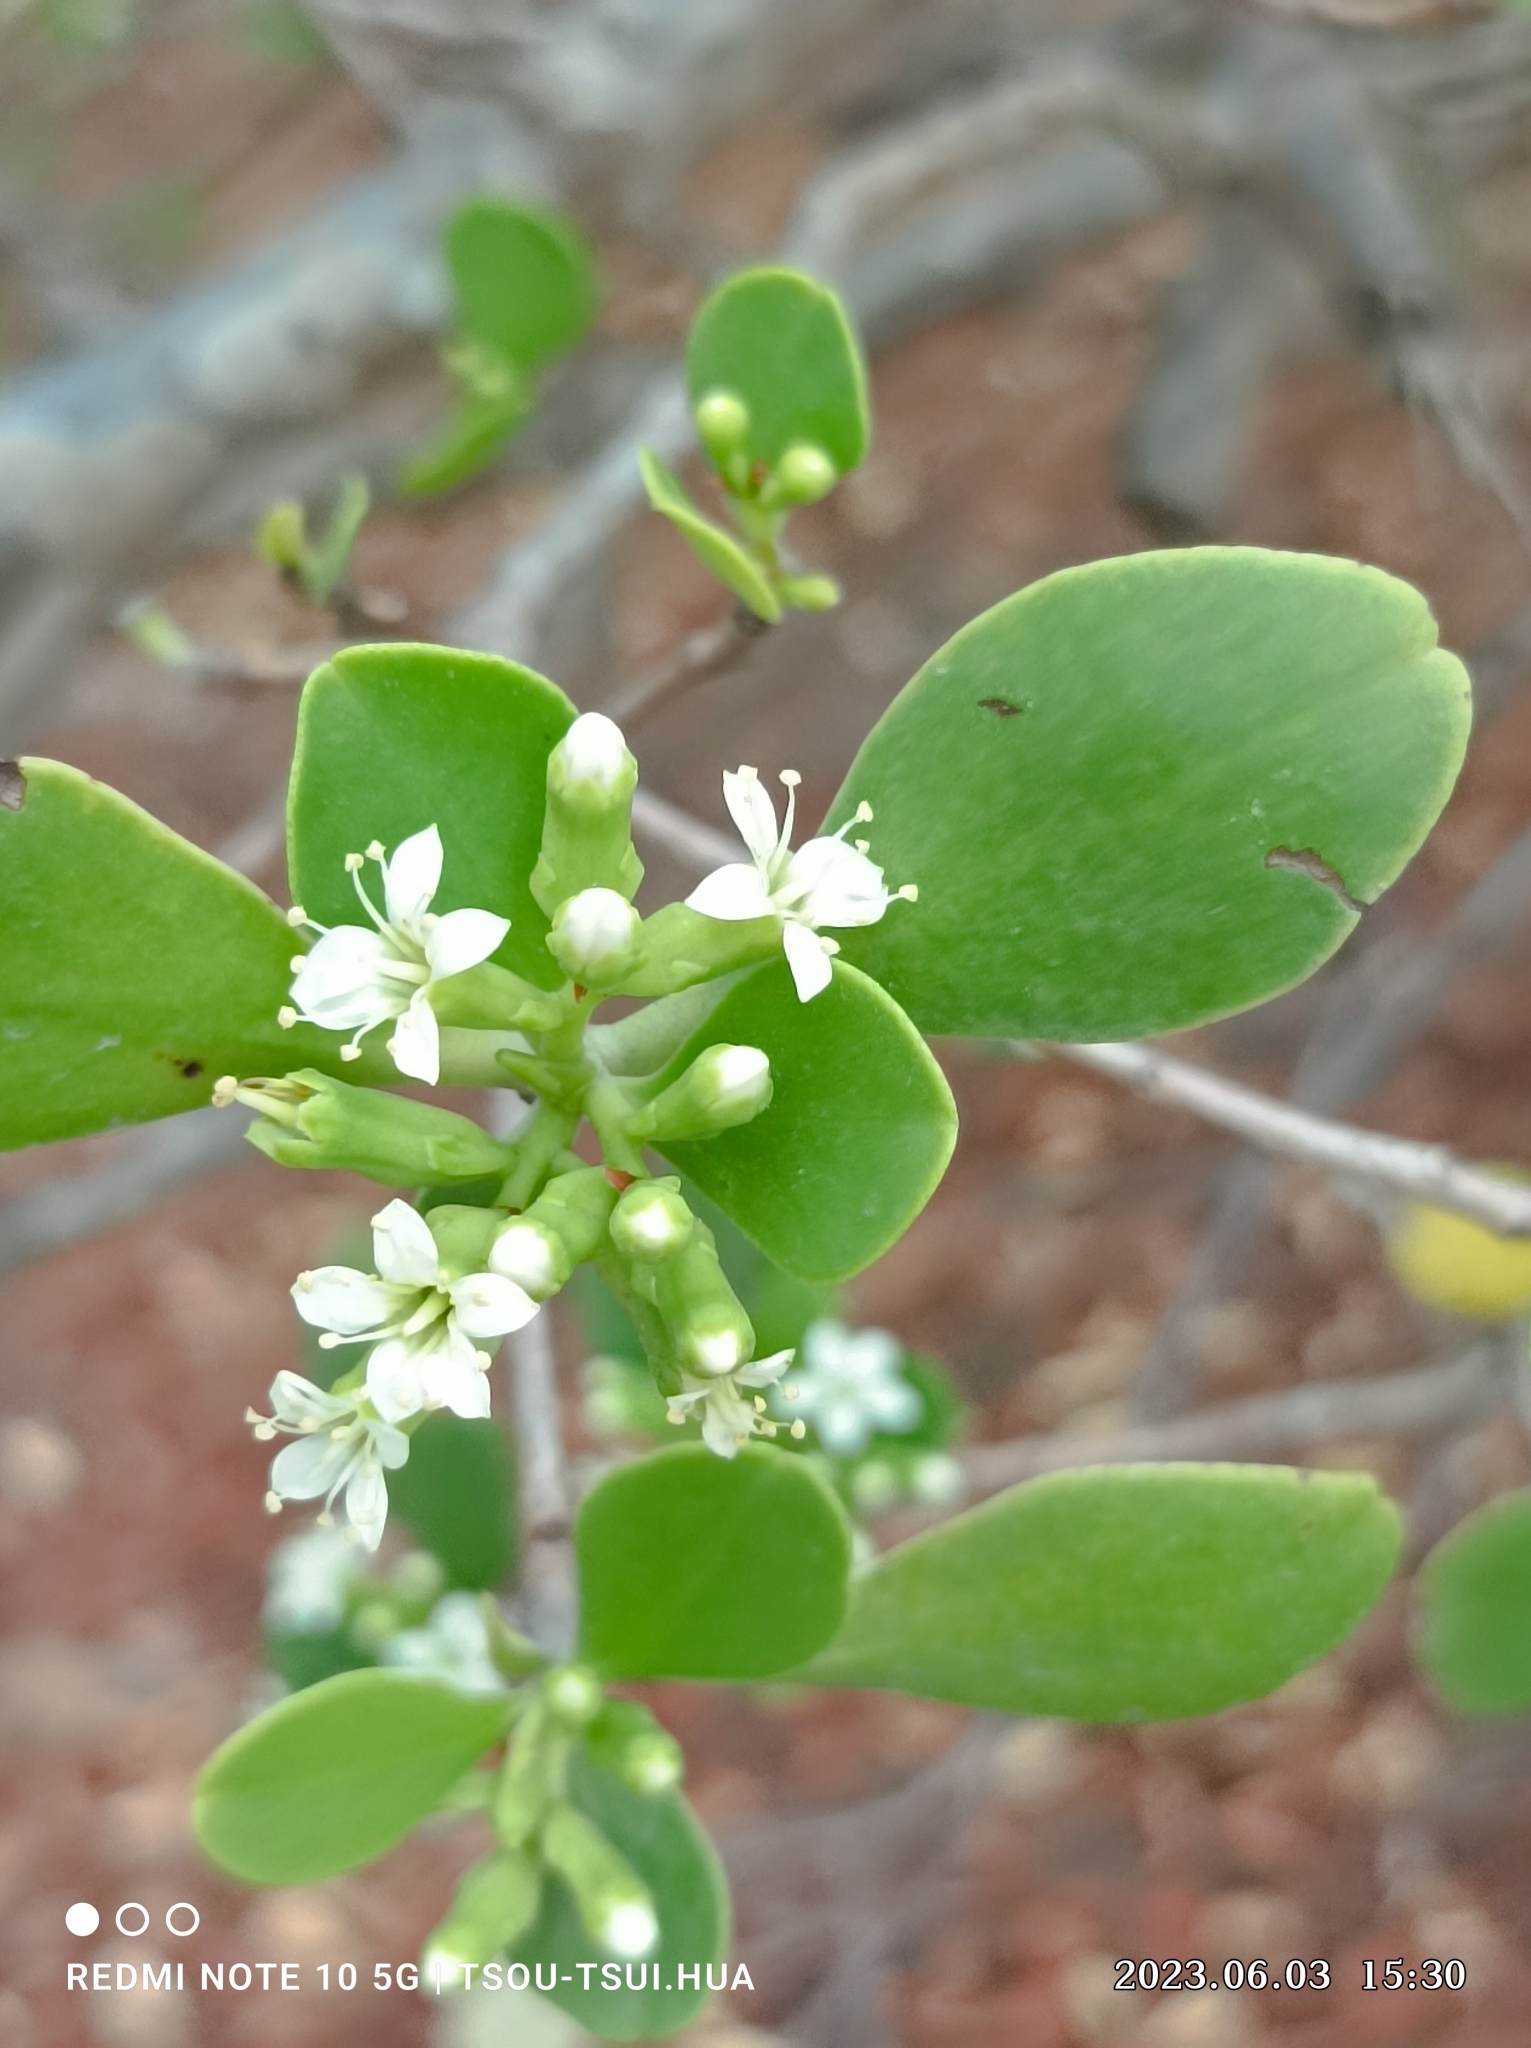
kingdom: Plantae
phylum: Tracheophyta
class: Magnoliopsida
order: Myrtales
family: Combretaceae
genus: Lumnitzera
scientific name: Lumnitzera racemosa
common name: White-flowered black mangrove
